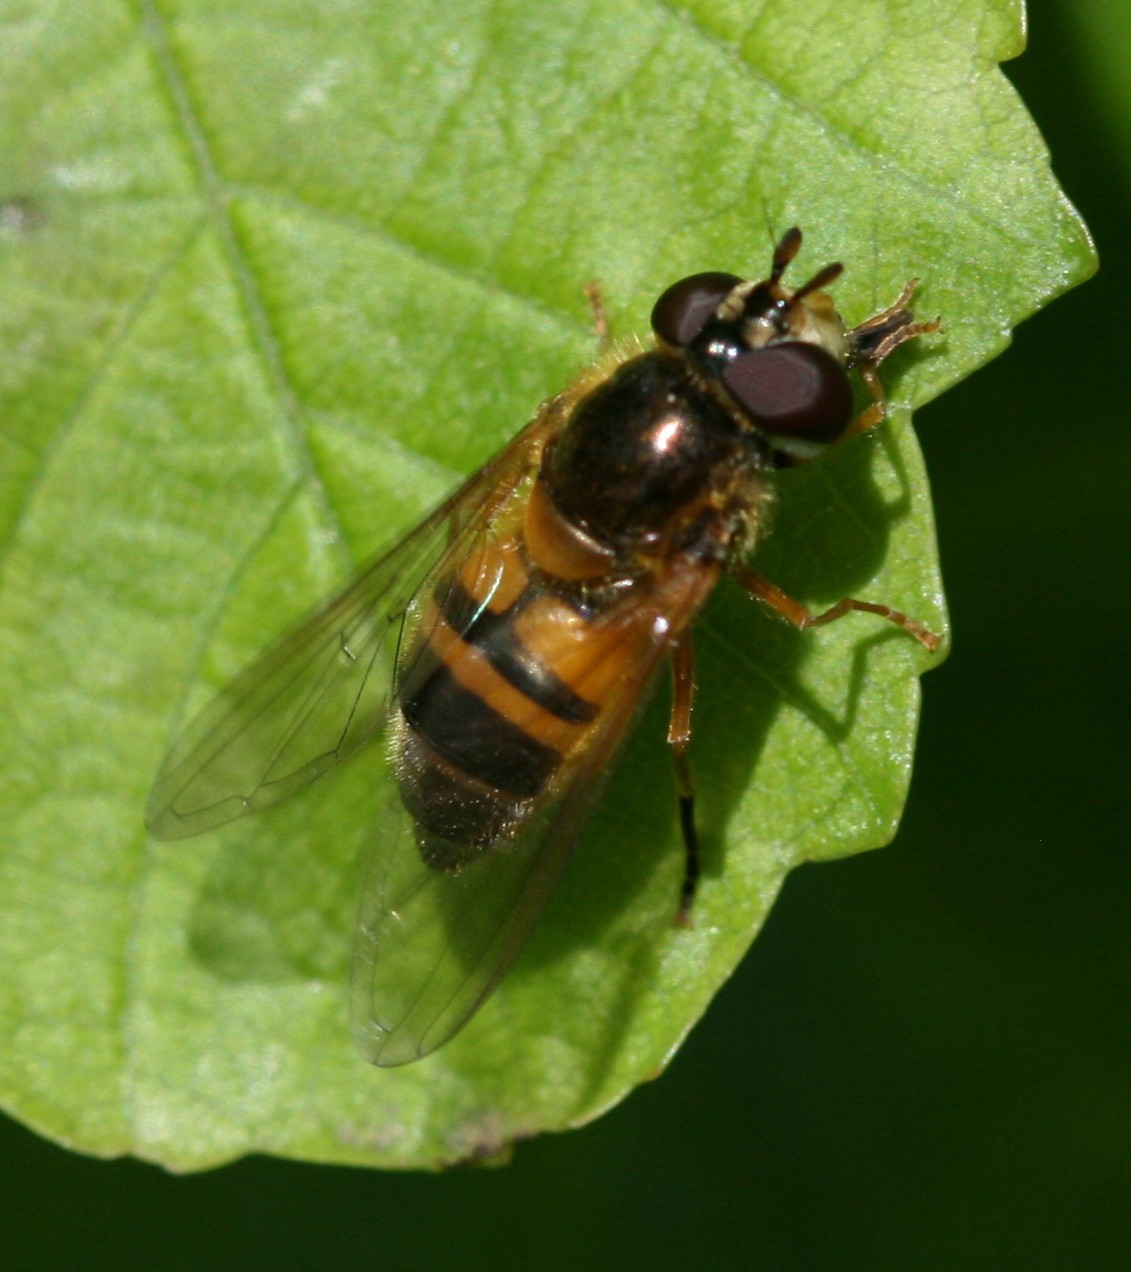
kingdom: Animalia
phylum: Arthropoda
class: Insecta
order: Diptera
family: Syrphidae
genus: Epistrophe
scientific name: Epistrophe eligans
